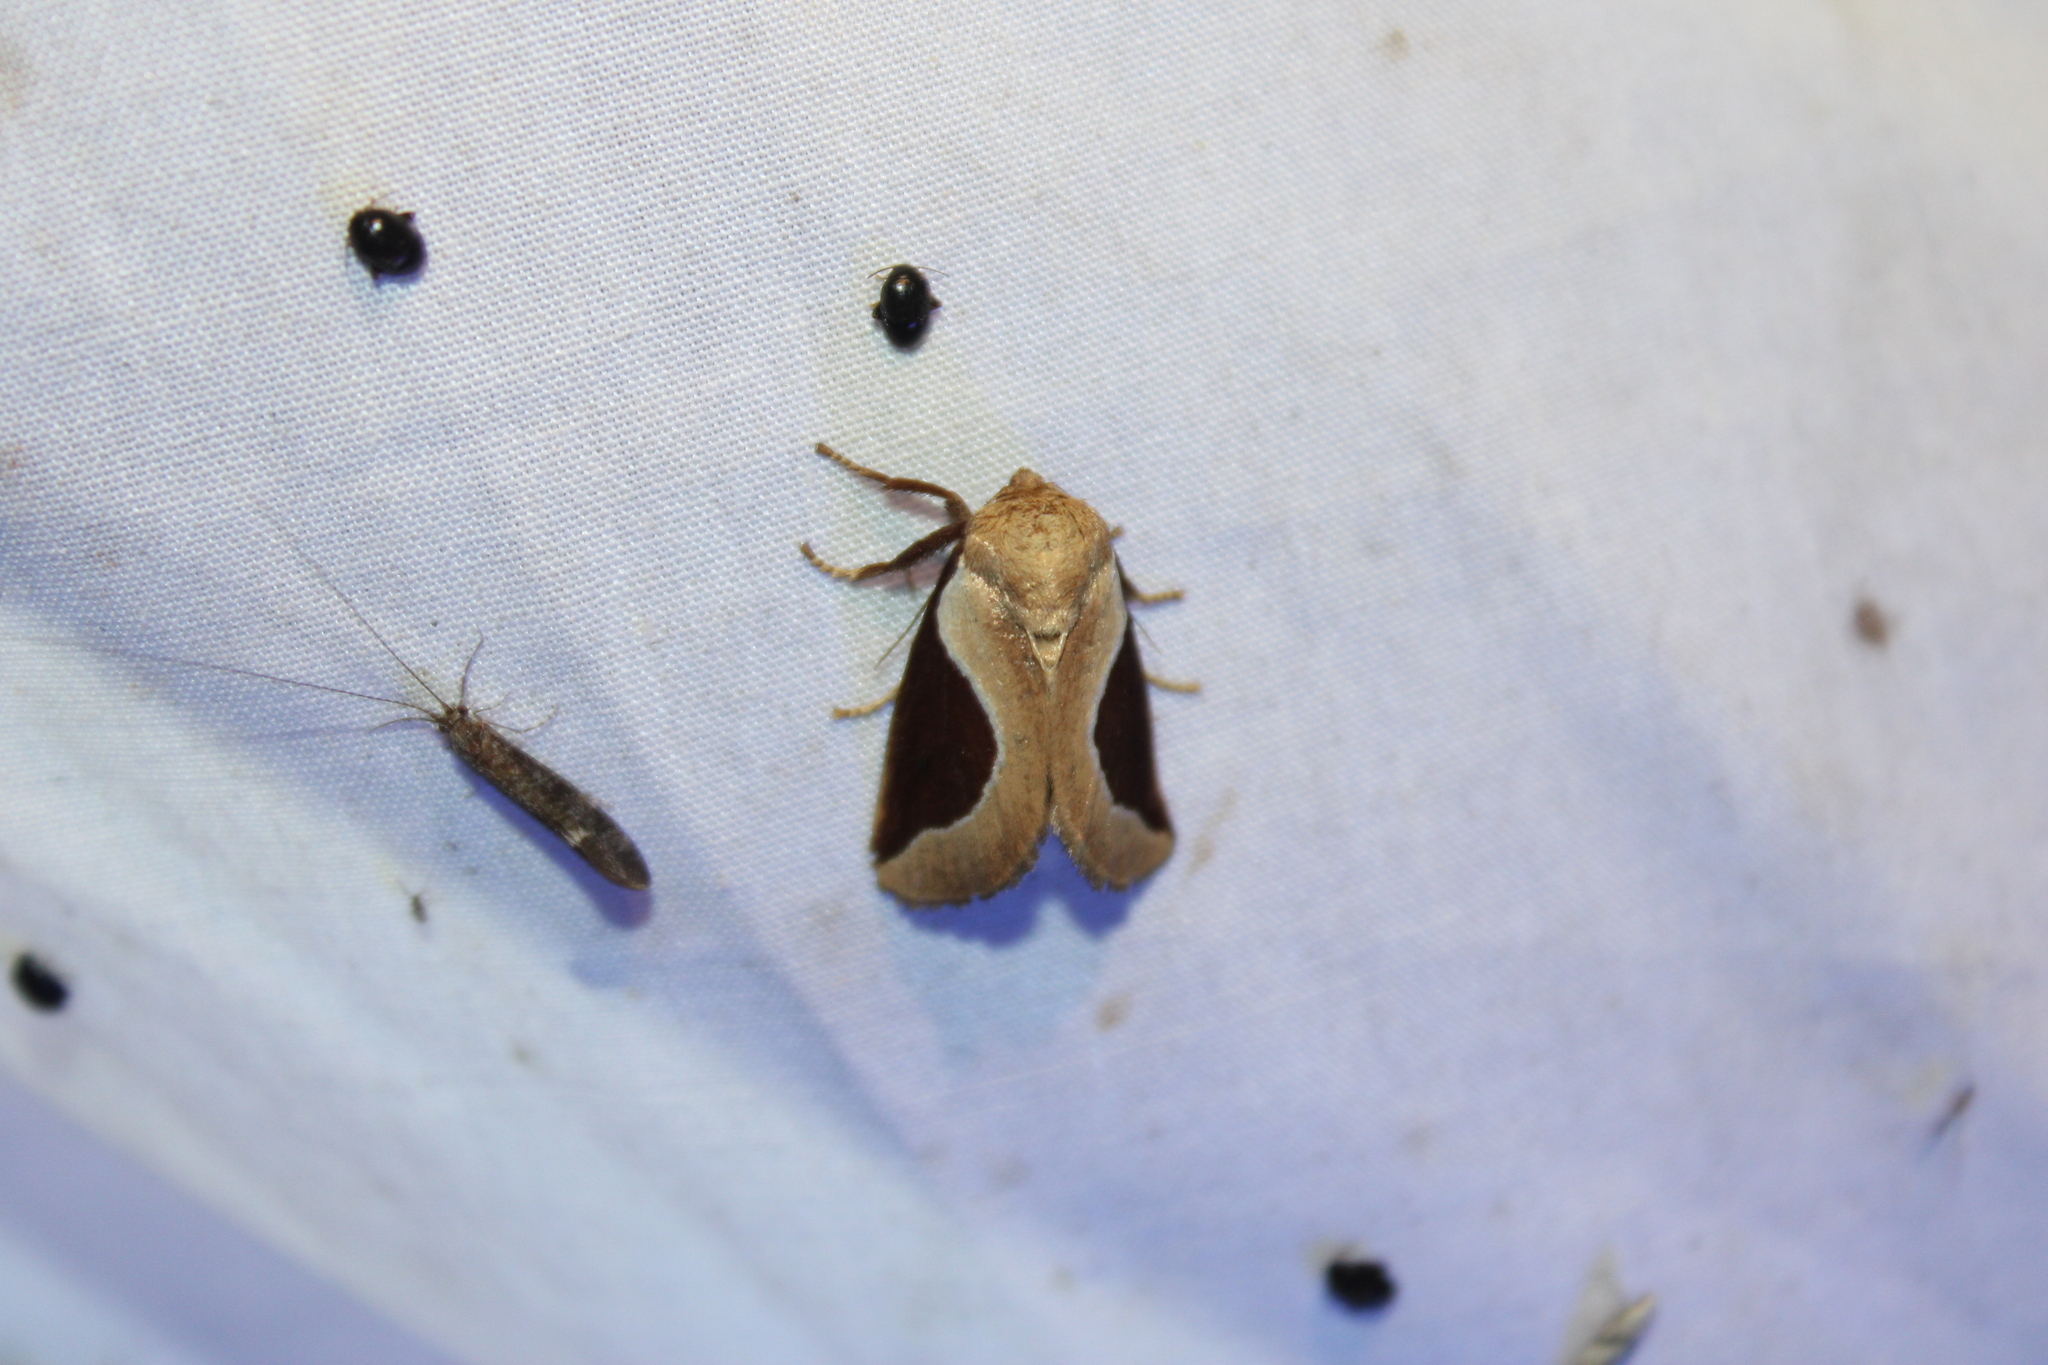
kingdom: Animalia
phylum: Arthropoda
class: Insecta
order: Lepidoptera
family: Limacodidae
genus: Prolimacodes
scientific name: Prolimacodes badia
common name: Skiff moth
